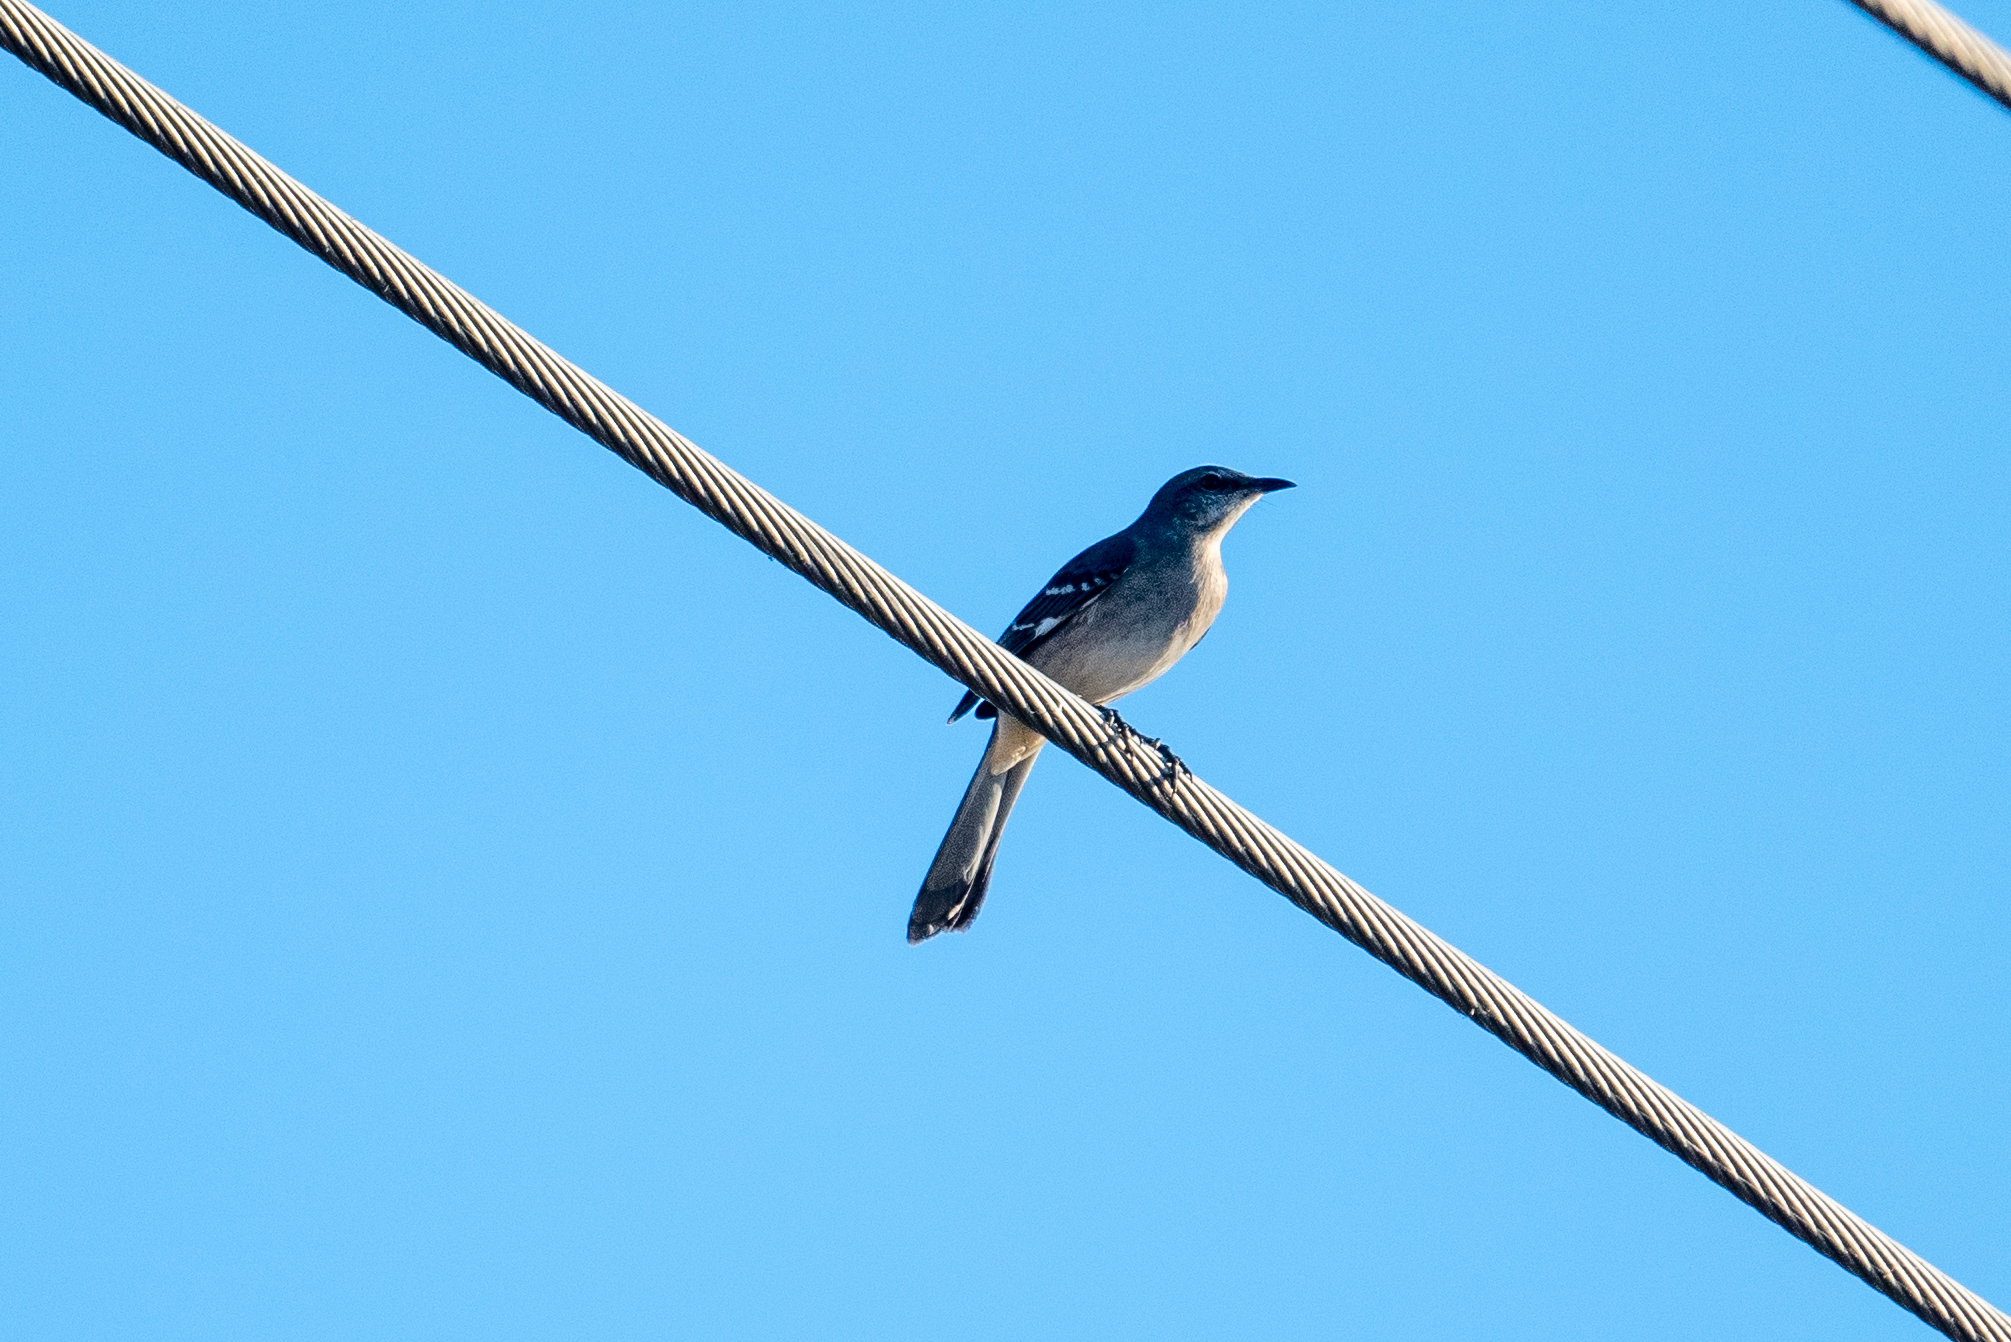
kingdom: Animalia
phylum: Chordata
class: Aves
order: Passeriformes
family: Mimidae
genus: Mimus
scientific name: Mimus polyglottos
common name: Northern mockingbird
